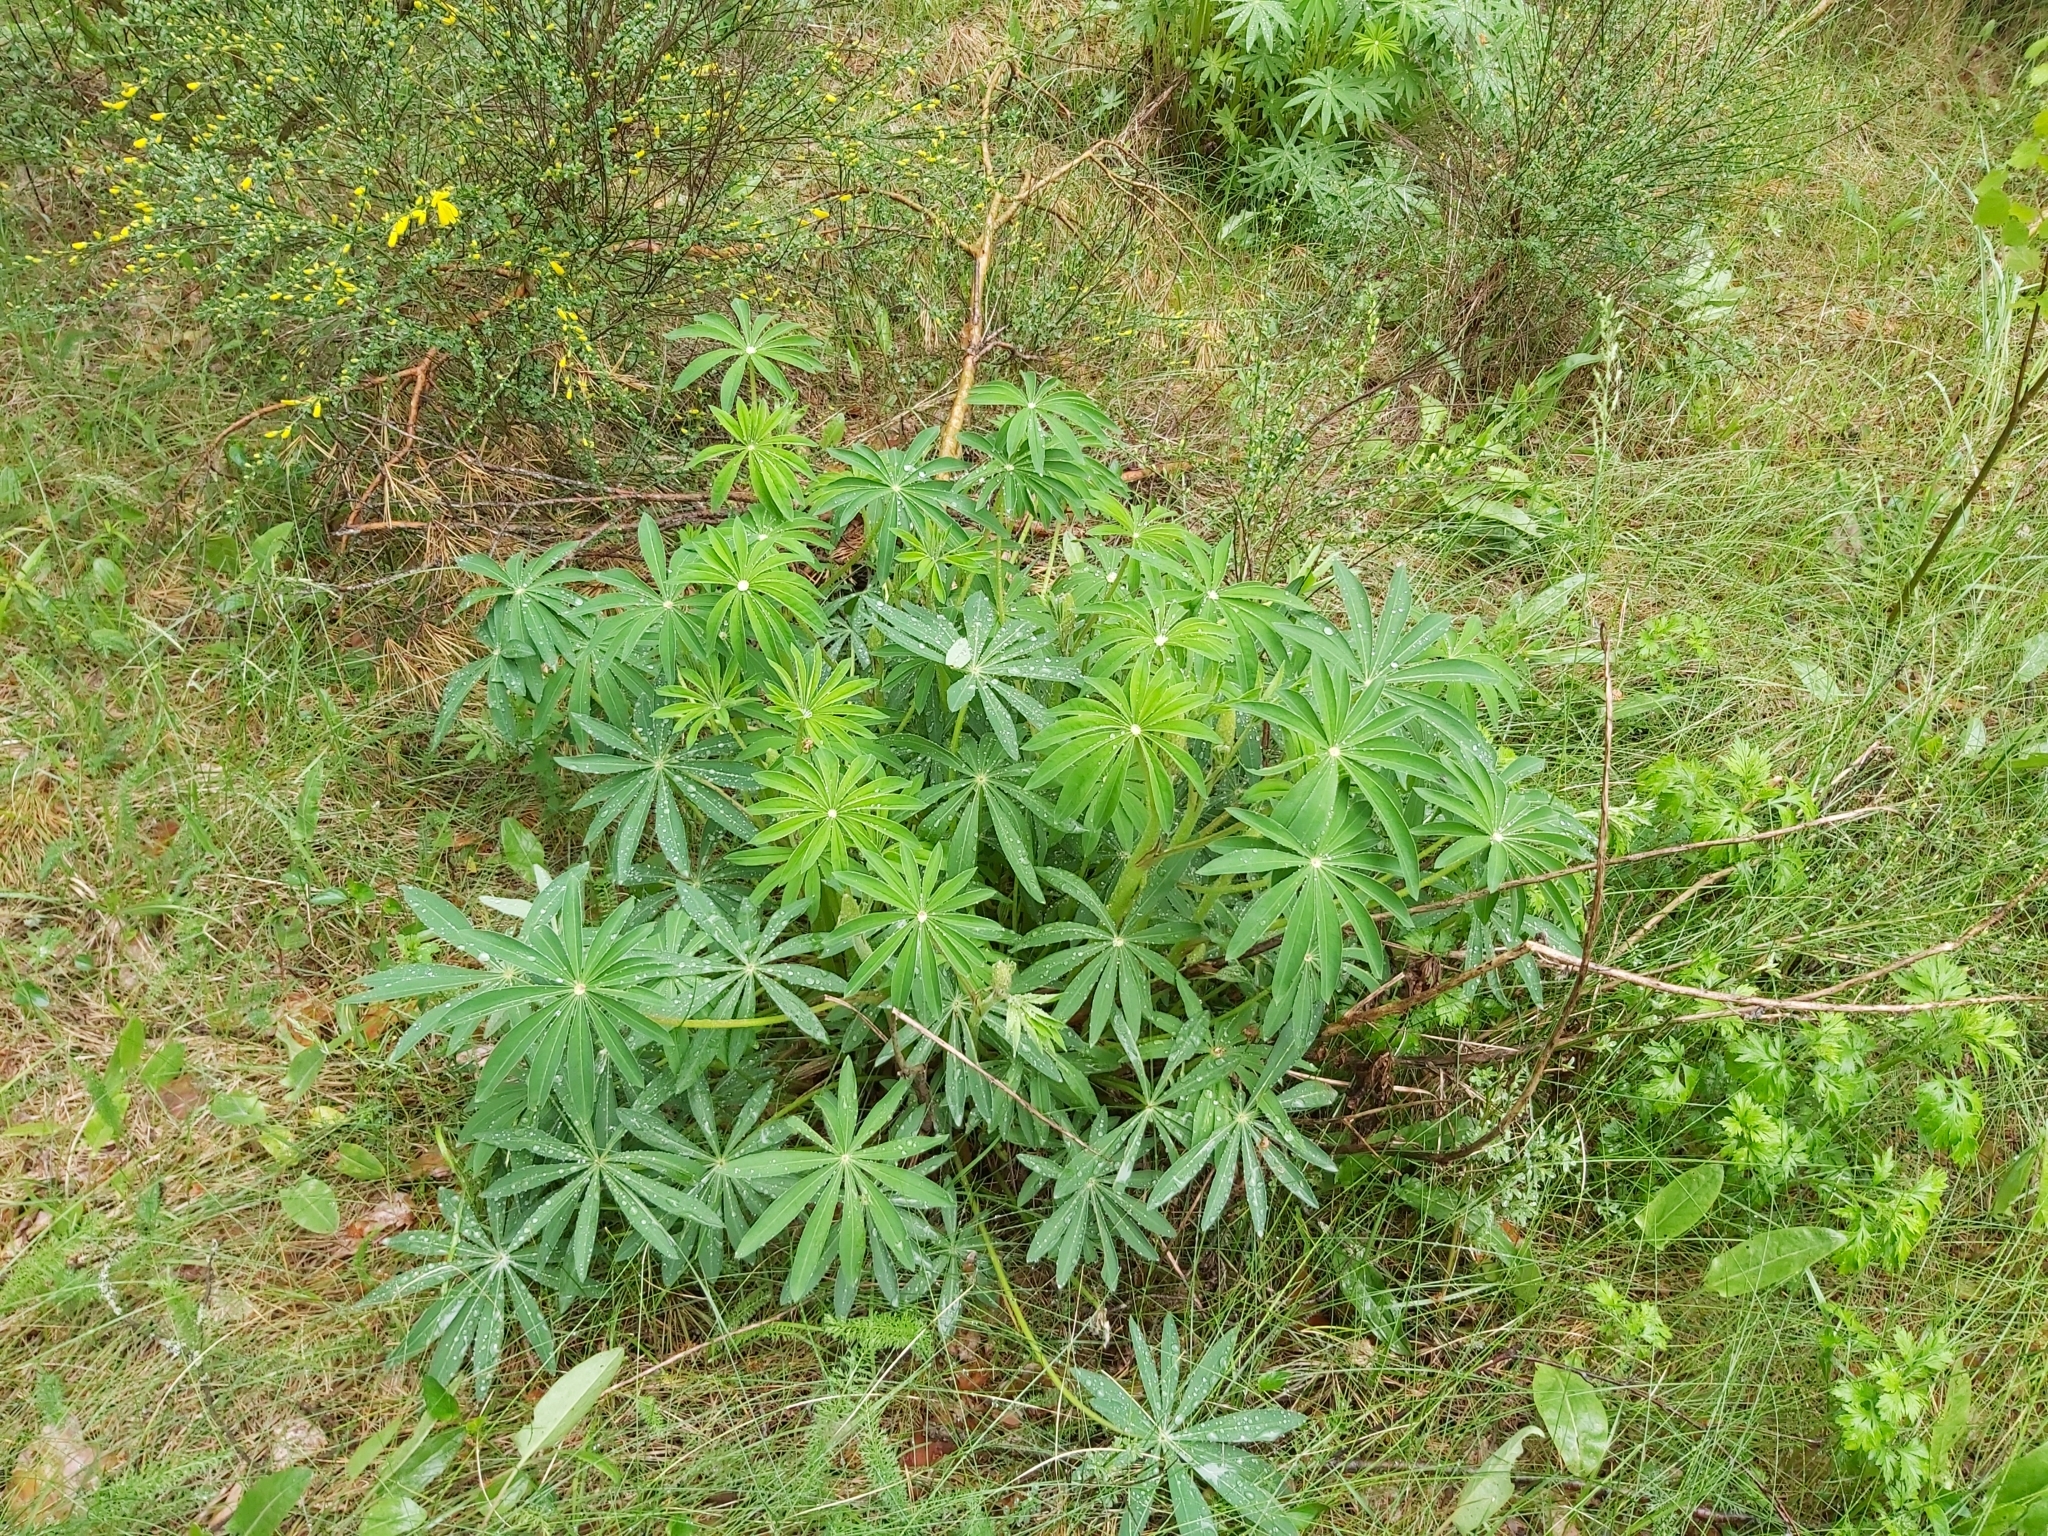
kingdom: Plantae
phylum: Tracheophyta
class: Magnoliopsida
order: Fabales
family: Fabaceae
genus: Lupinus
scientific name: Lupinus polyphyllus
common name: Garden lupin
